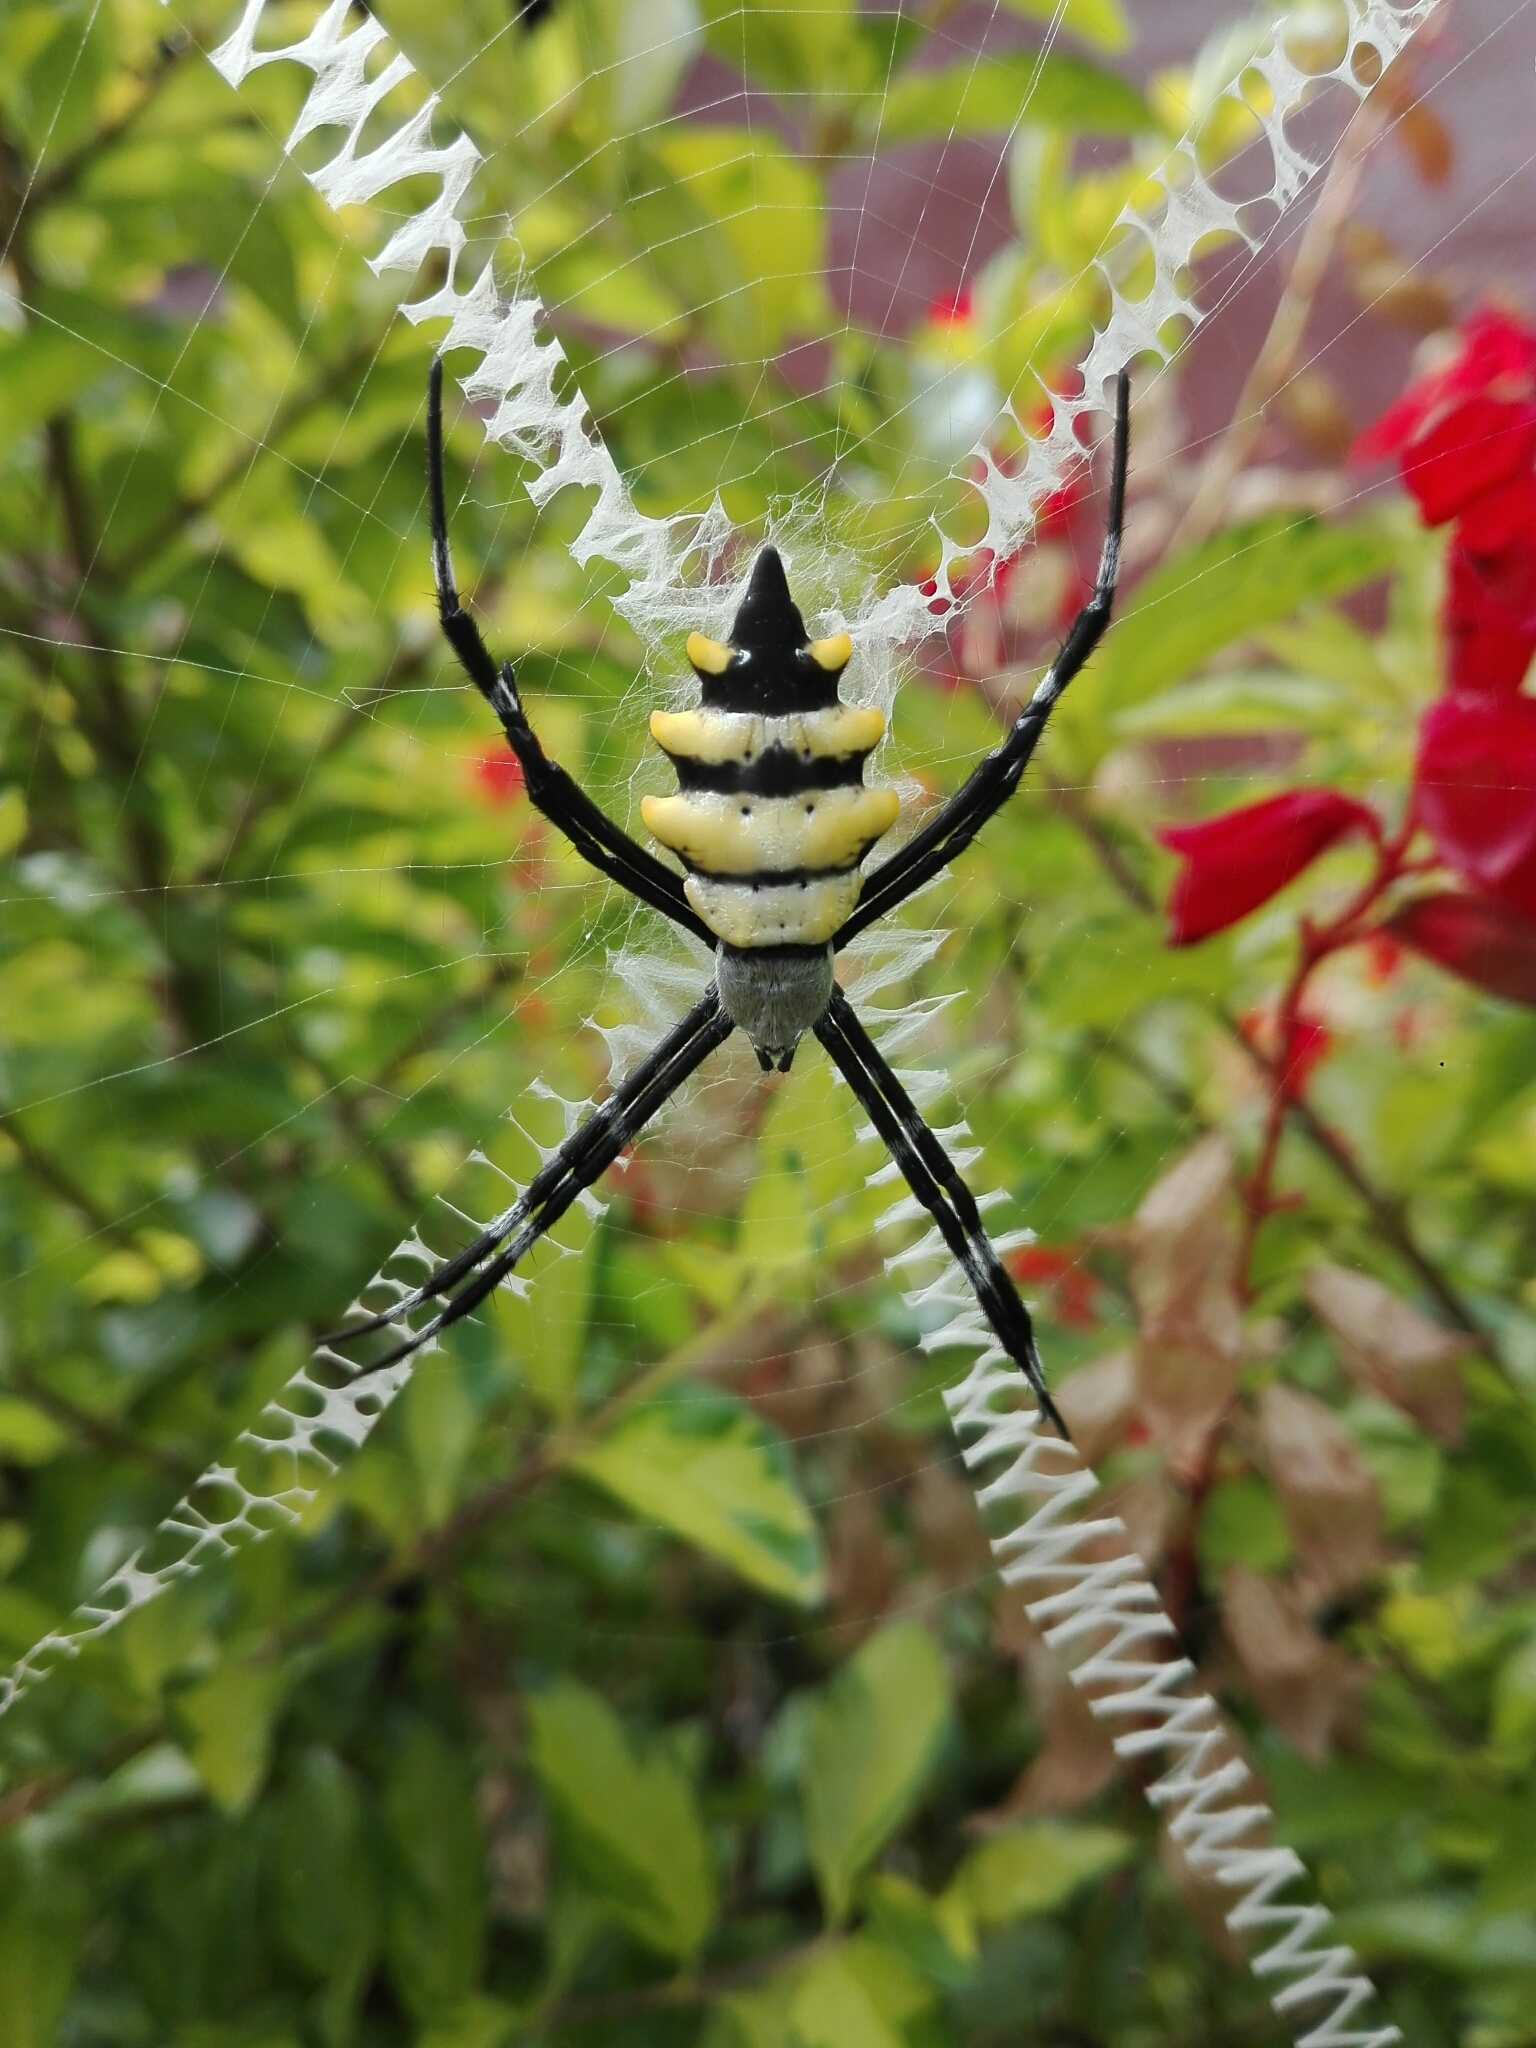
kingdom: Animalia
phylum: Arthropoda
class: Arachnida
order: Araneae
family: Araneidae
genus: Argiope
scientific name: Argiope coquereli
